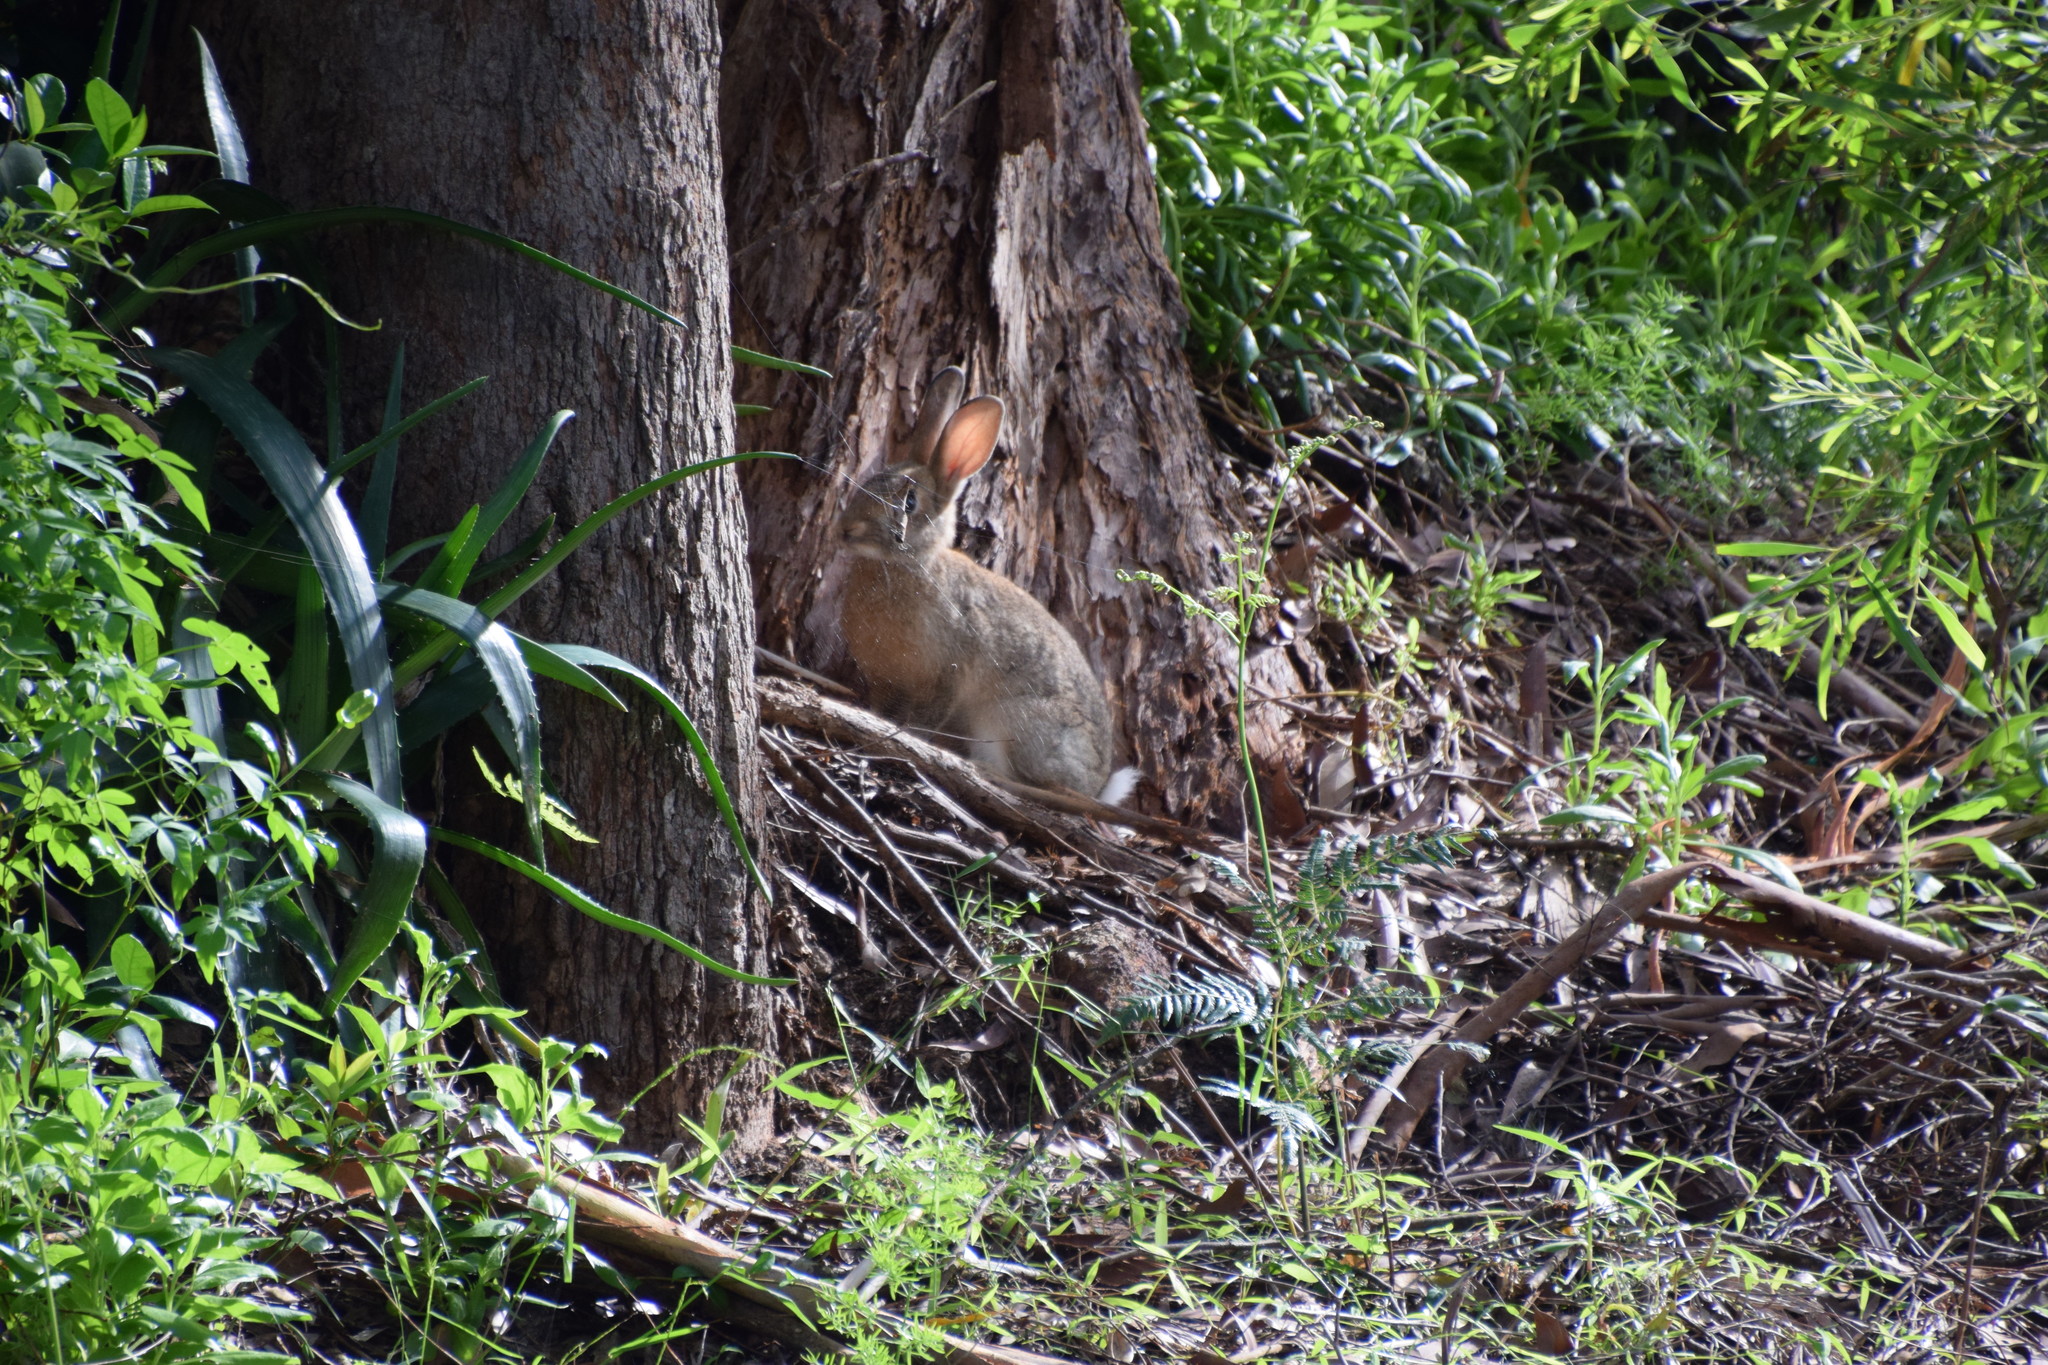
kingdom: Animalia
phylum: Chordata
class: Mammalia
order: Lagomorpha
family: Leporidae
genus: Oryctolagus
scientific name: Oryctolagus cuniculus
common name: European rabbit
